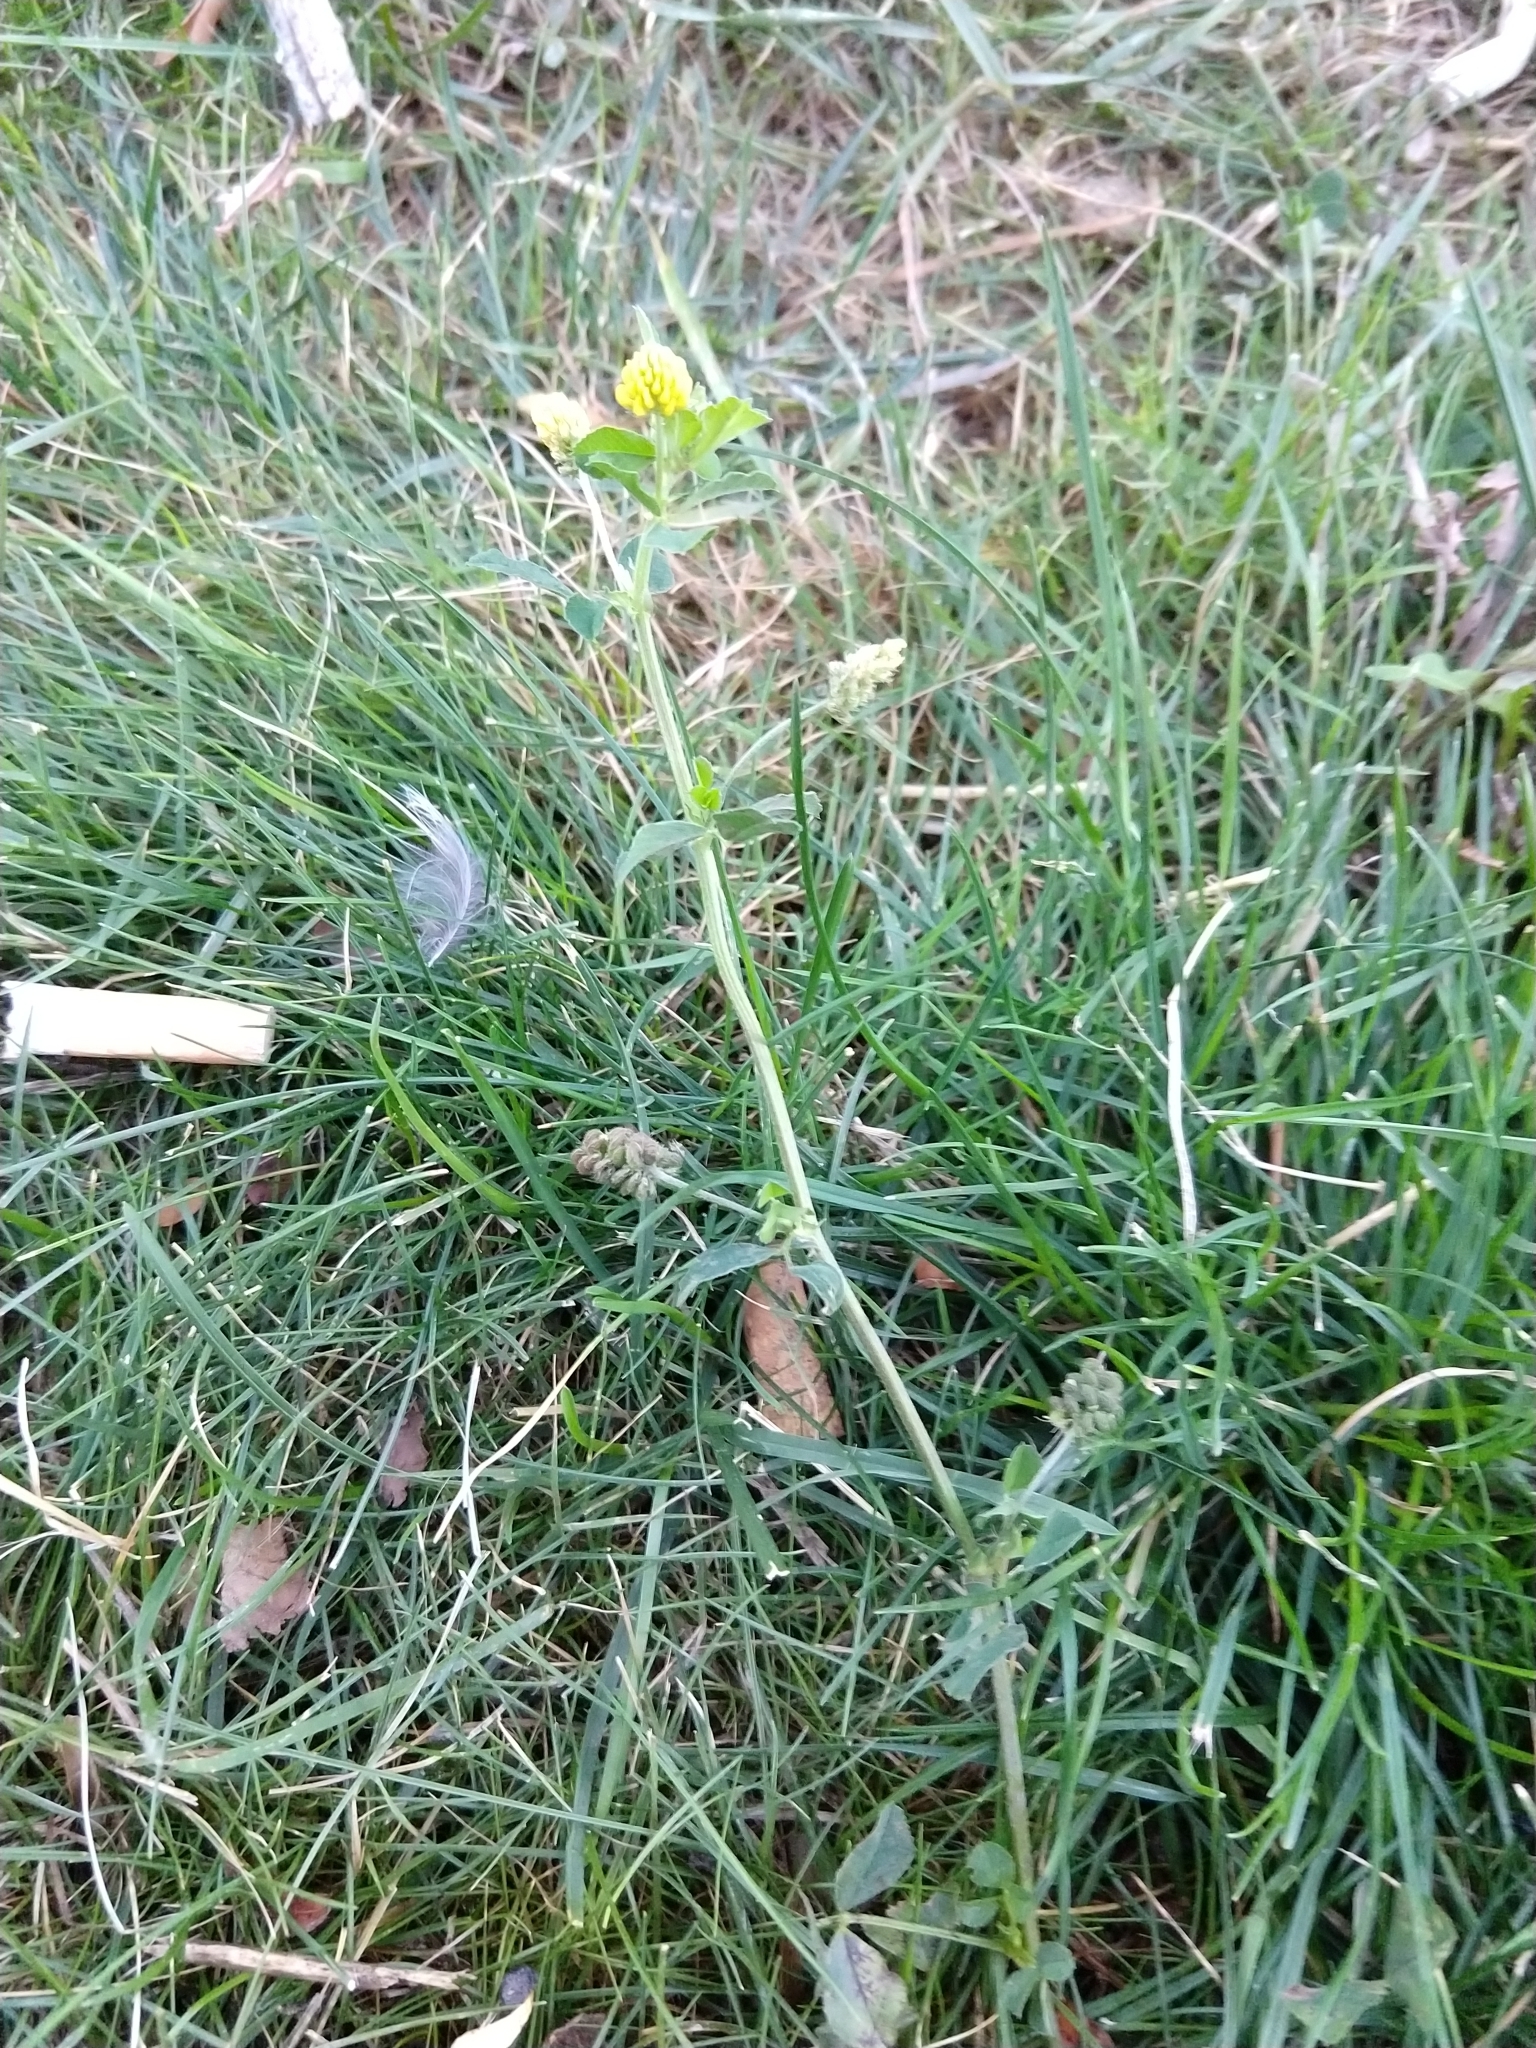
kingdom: Plantae
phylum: Tracheophyta
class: Magnoliopsida
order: Fabales
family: Fabaceae
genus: Medicago
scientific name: Medicago lupulina
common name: Black medick
